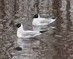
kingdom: Animalia
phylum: Chordata
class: Aves
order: Charadriiformes
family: Laridae
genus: Chroicocephalus
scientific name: Chroicocephalus ridibundus
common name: Black-headed gull
